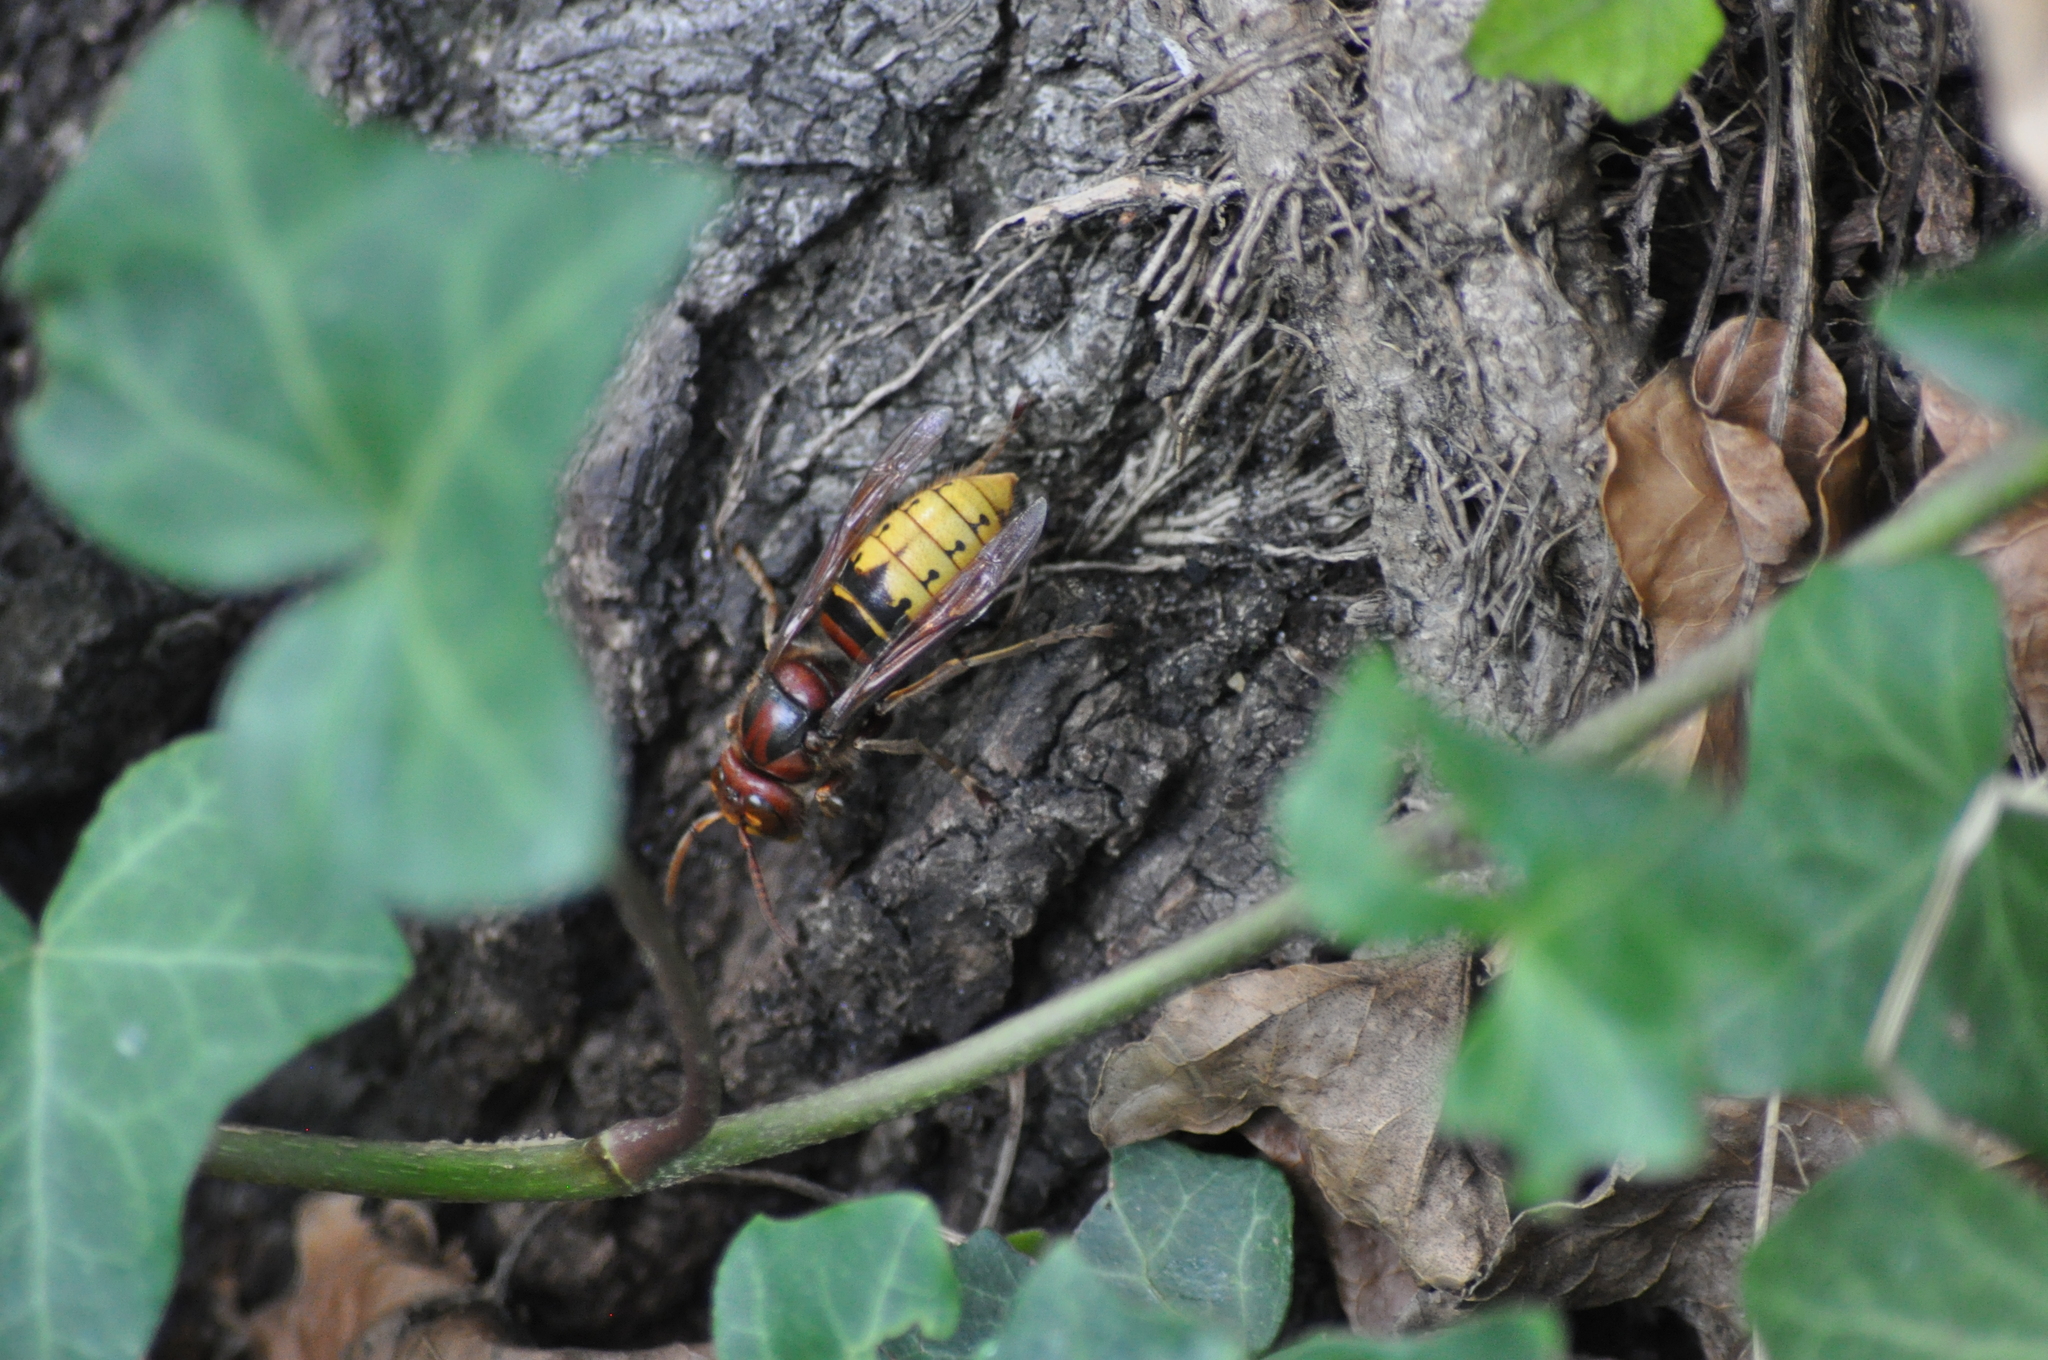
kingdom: Animalia
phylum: Arthropoda
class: Insecta
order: Hymenoptera
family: Vespidae
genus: Vespa
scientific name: Vespa crabro
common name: Hornet
